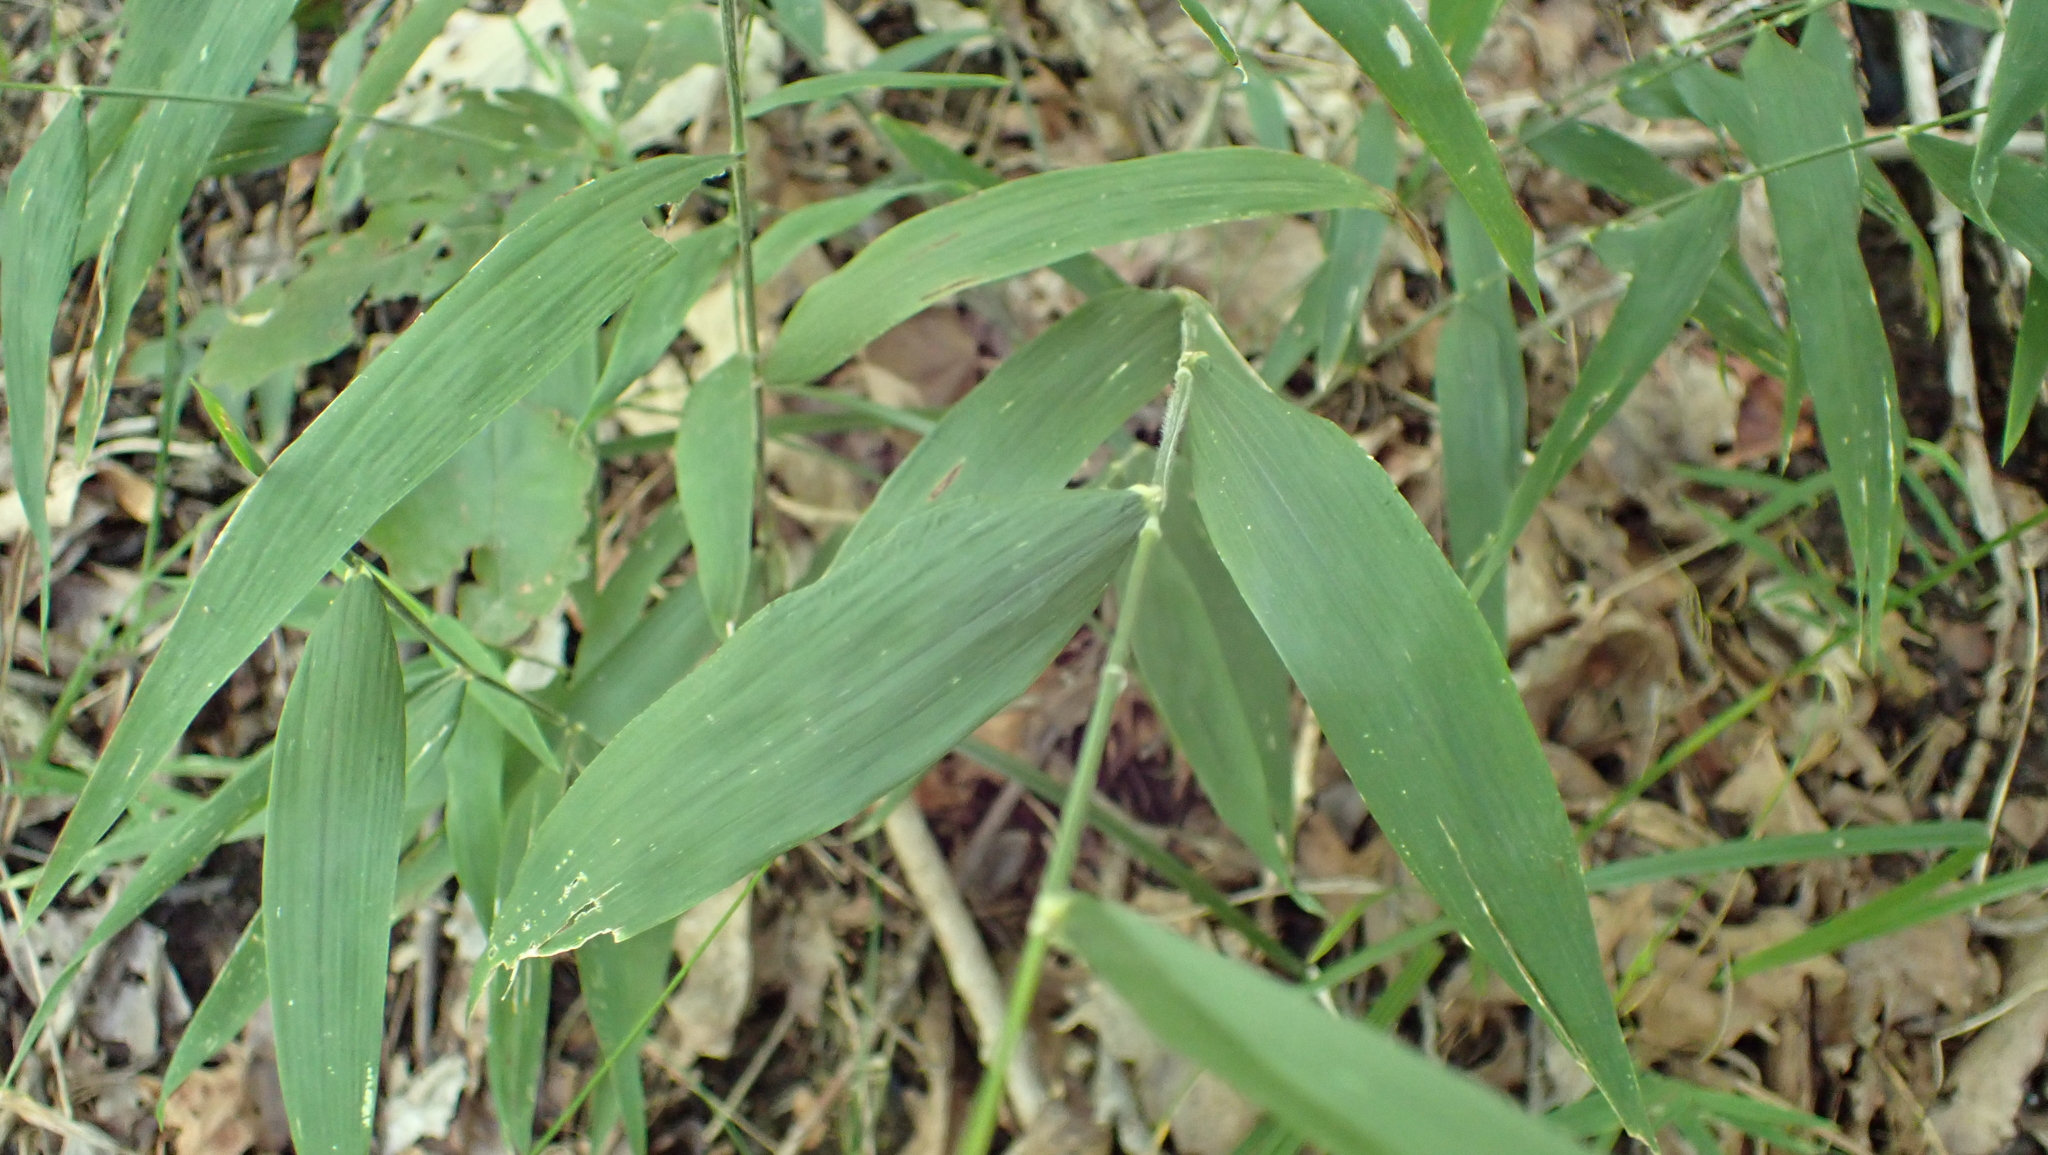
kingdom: Plantae
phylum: Tracheophyta
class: Liliopsida
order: Poales
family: Poaceae
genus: Brachyelytrum
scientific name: Brachyelytrum erectum
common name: Bearded shorthusk
